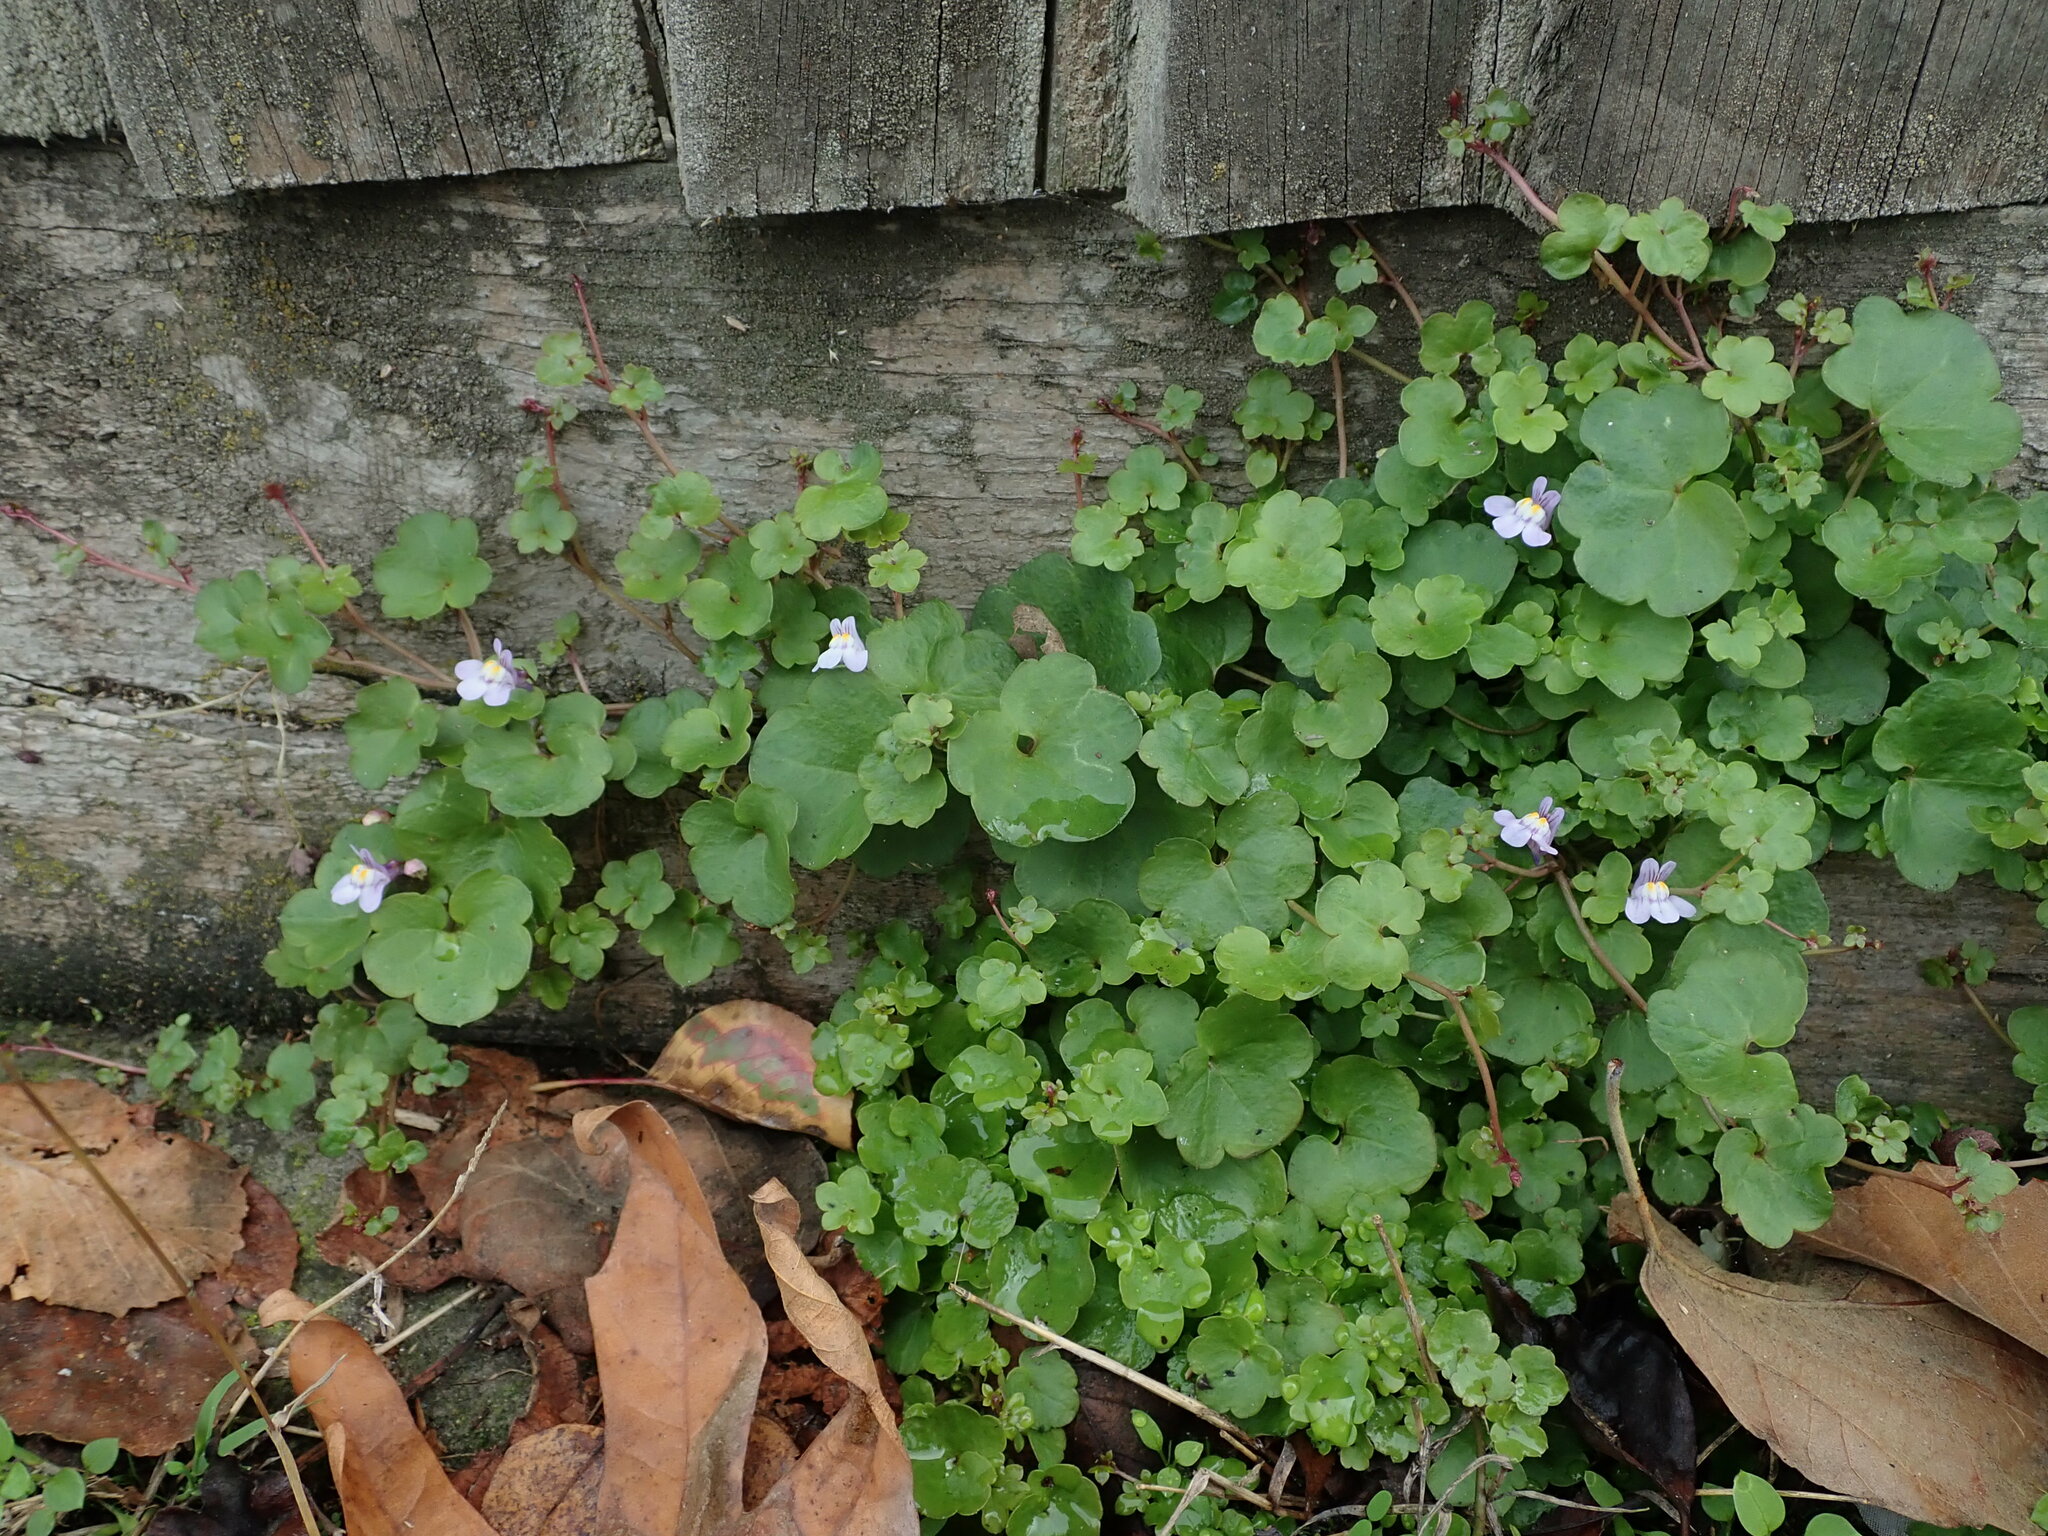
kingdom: Plantae
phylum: Tracheophyta
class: Magnoliopsida
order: Lamiales
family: Plantaginaceae
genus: Cymbalaria
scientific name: Cymbalaria muralis
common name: Ivy-leaved toadflax
